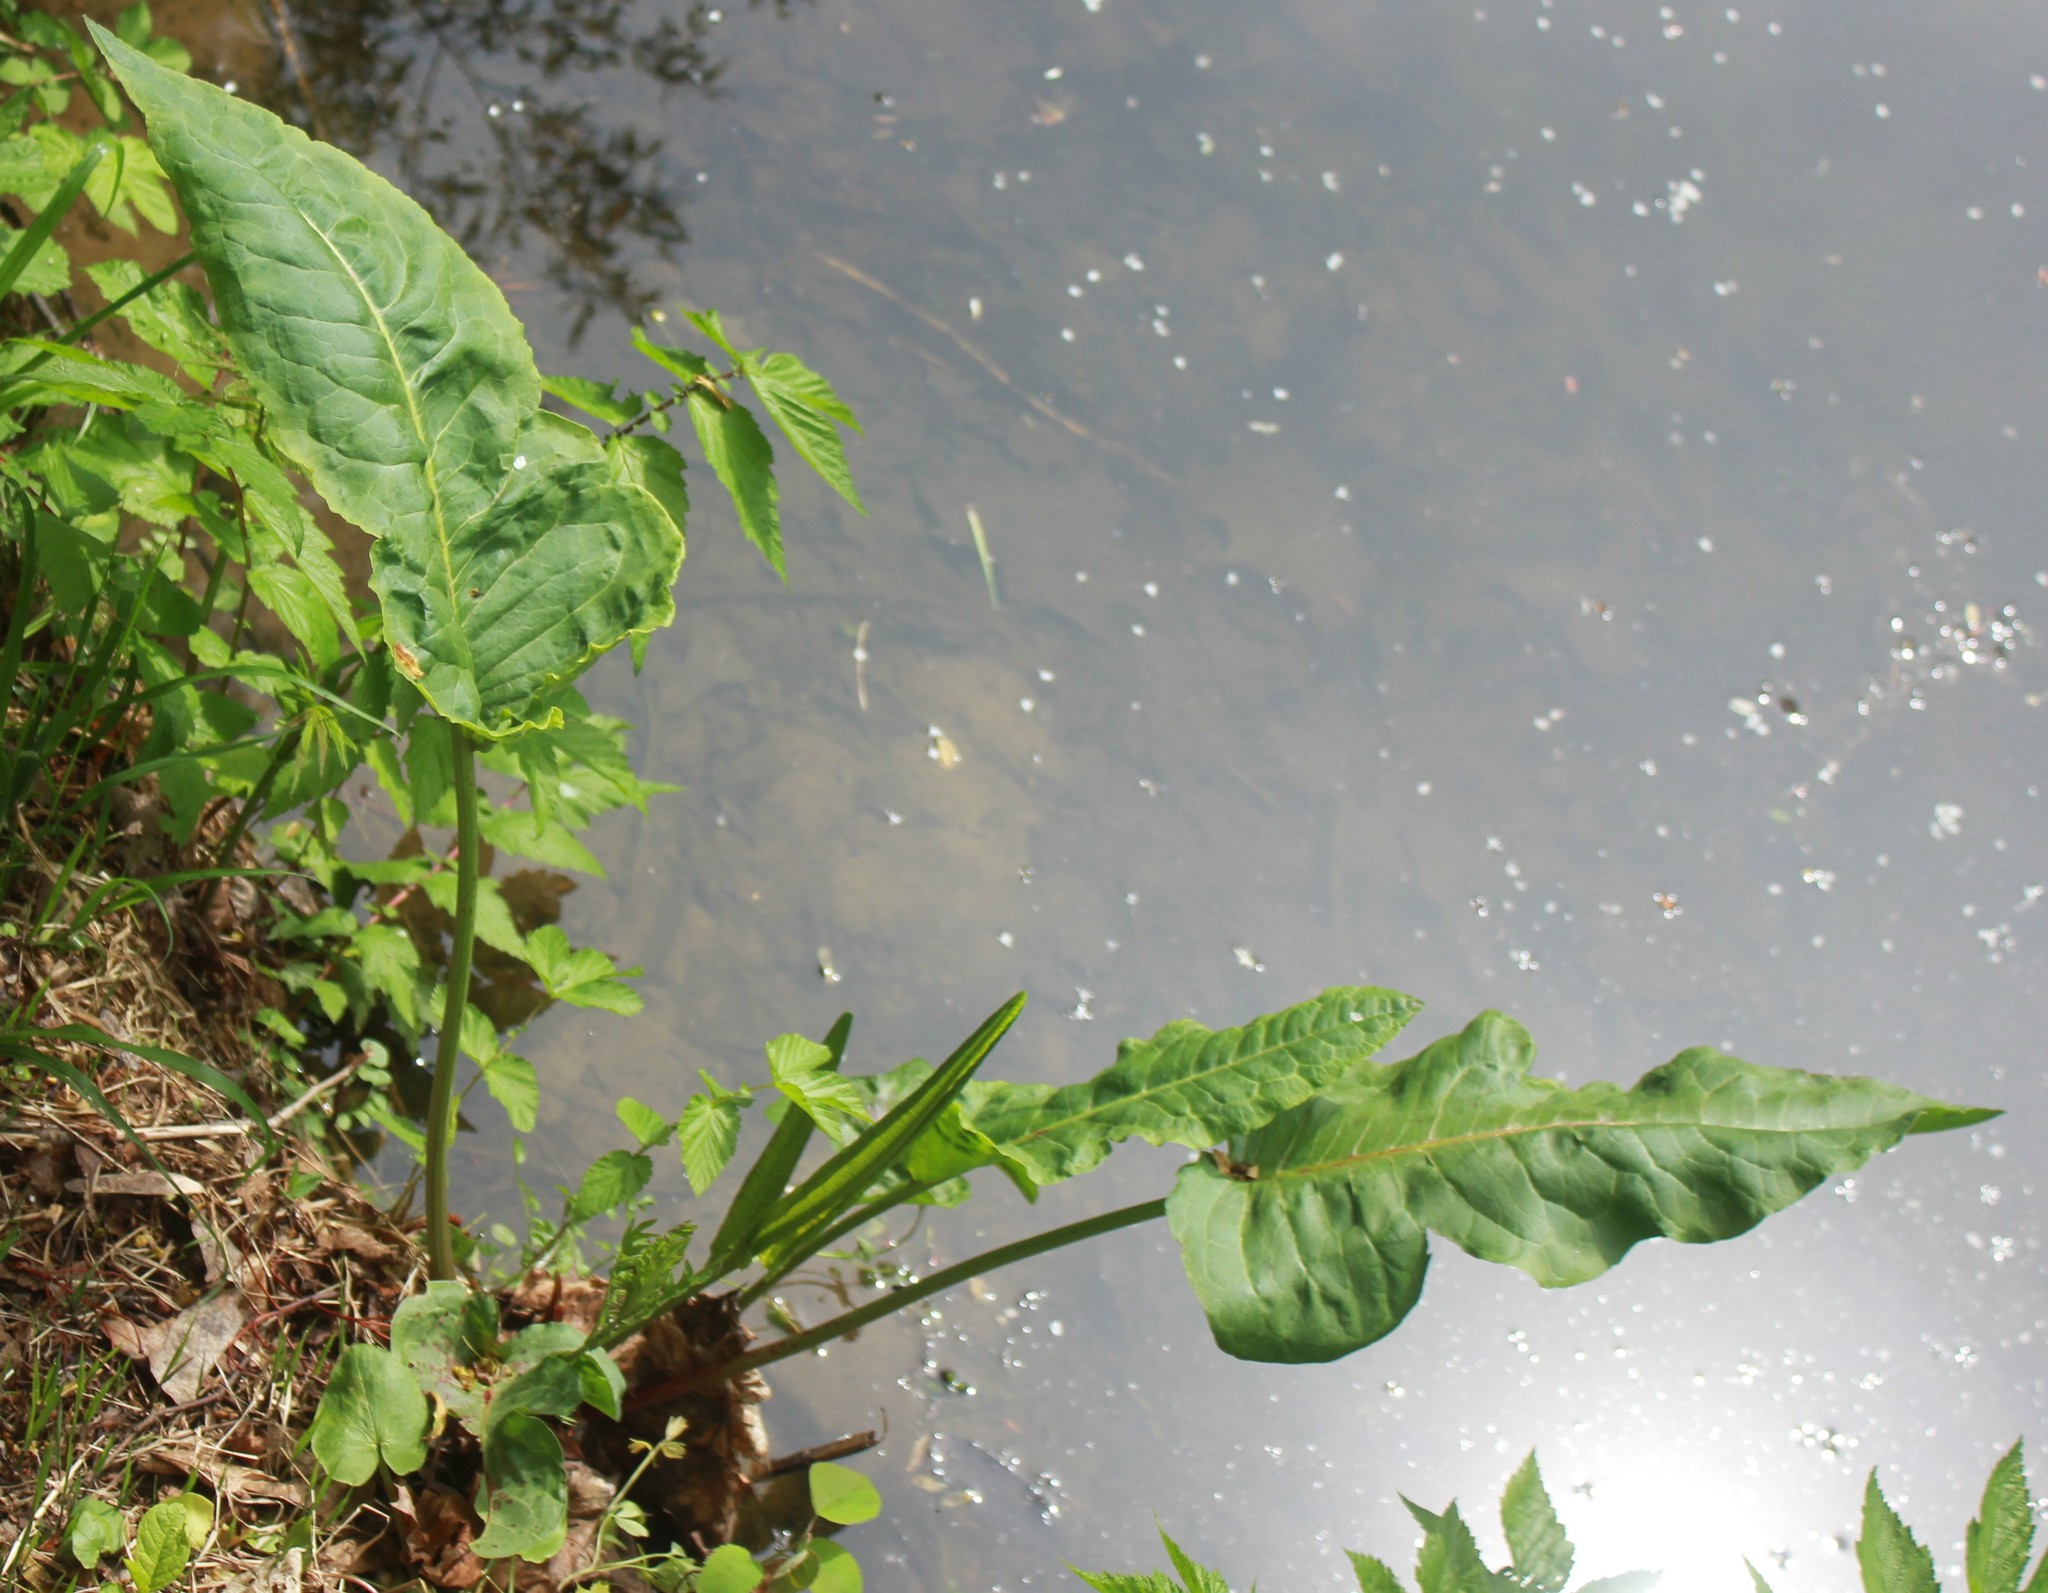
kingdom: Plantae
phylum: Tracheophyta
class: Magnoliopsida
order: Caryophyllales
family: Polygonaceae
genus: Rumex
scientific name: Rumex aquaticus
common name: Scottish dock
